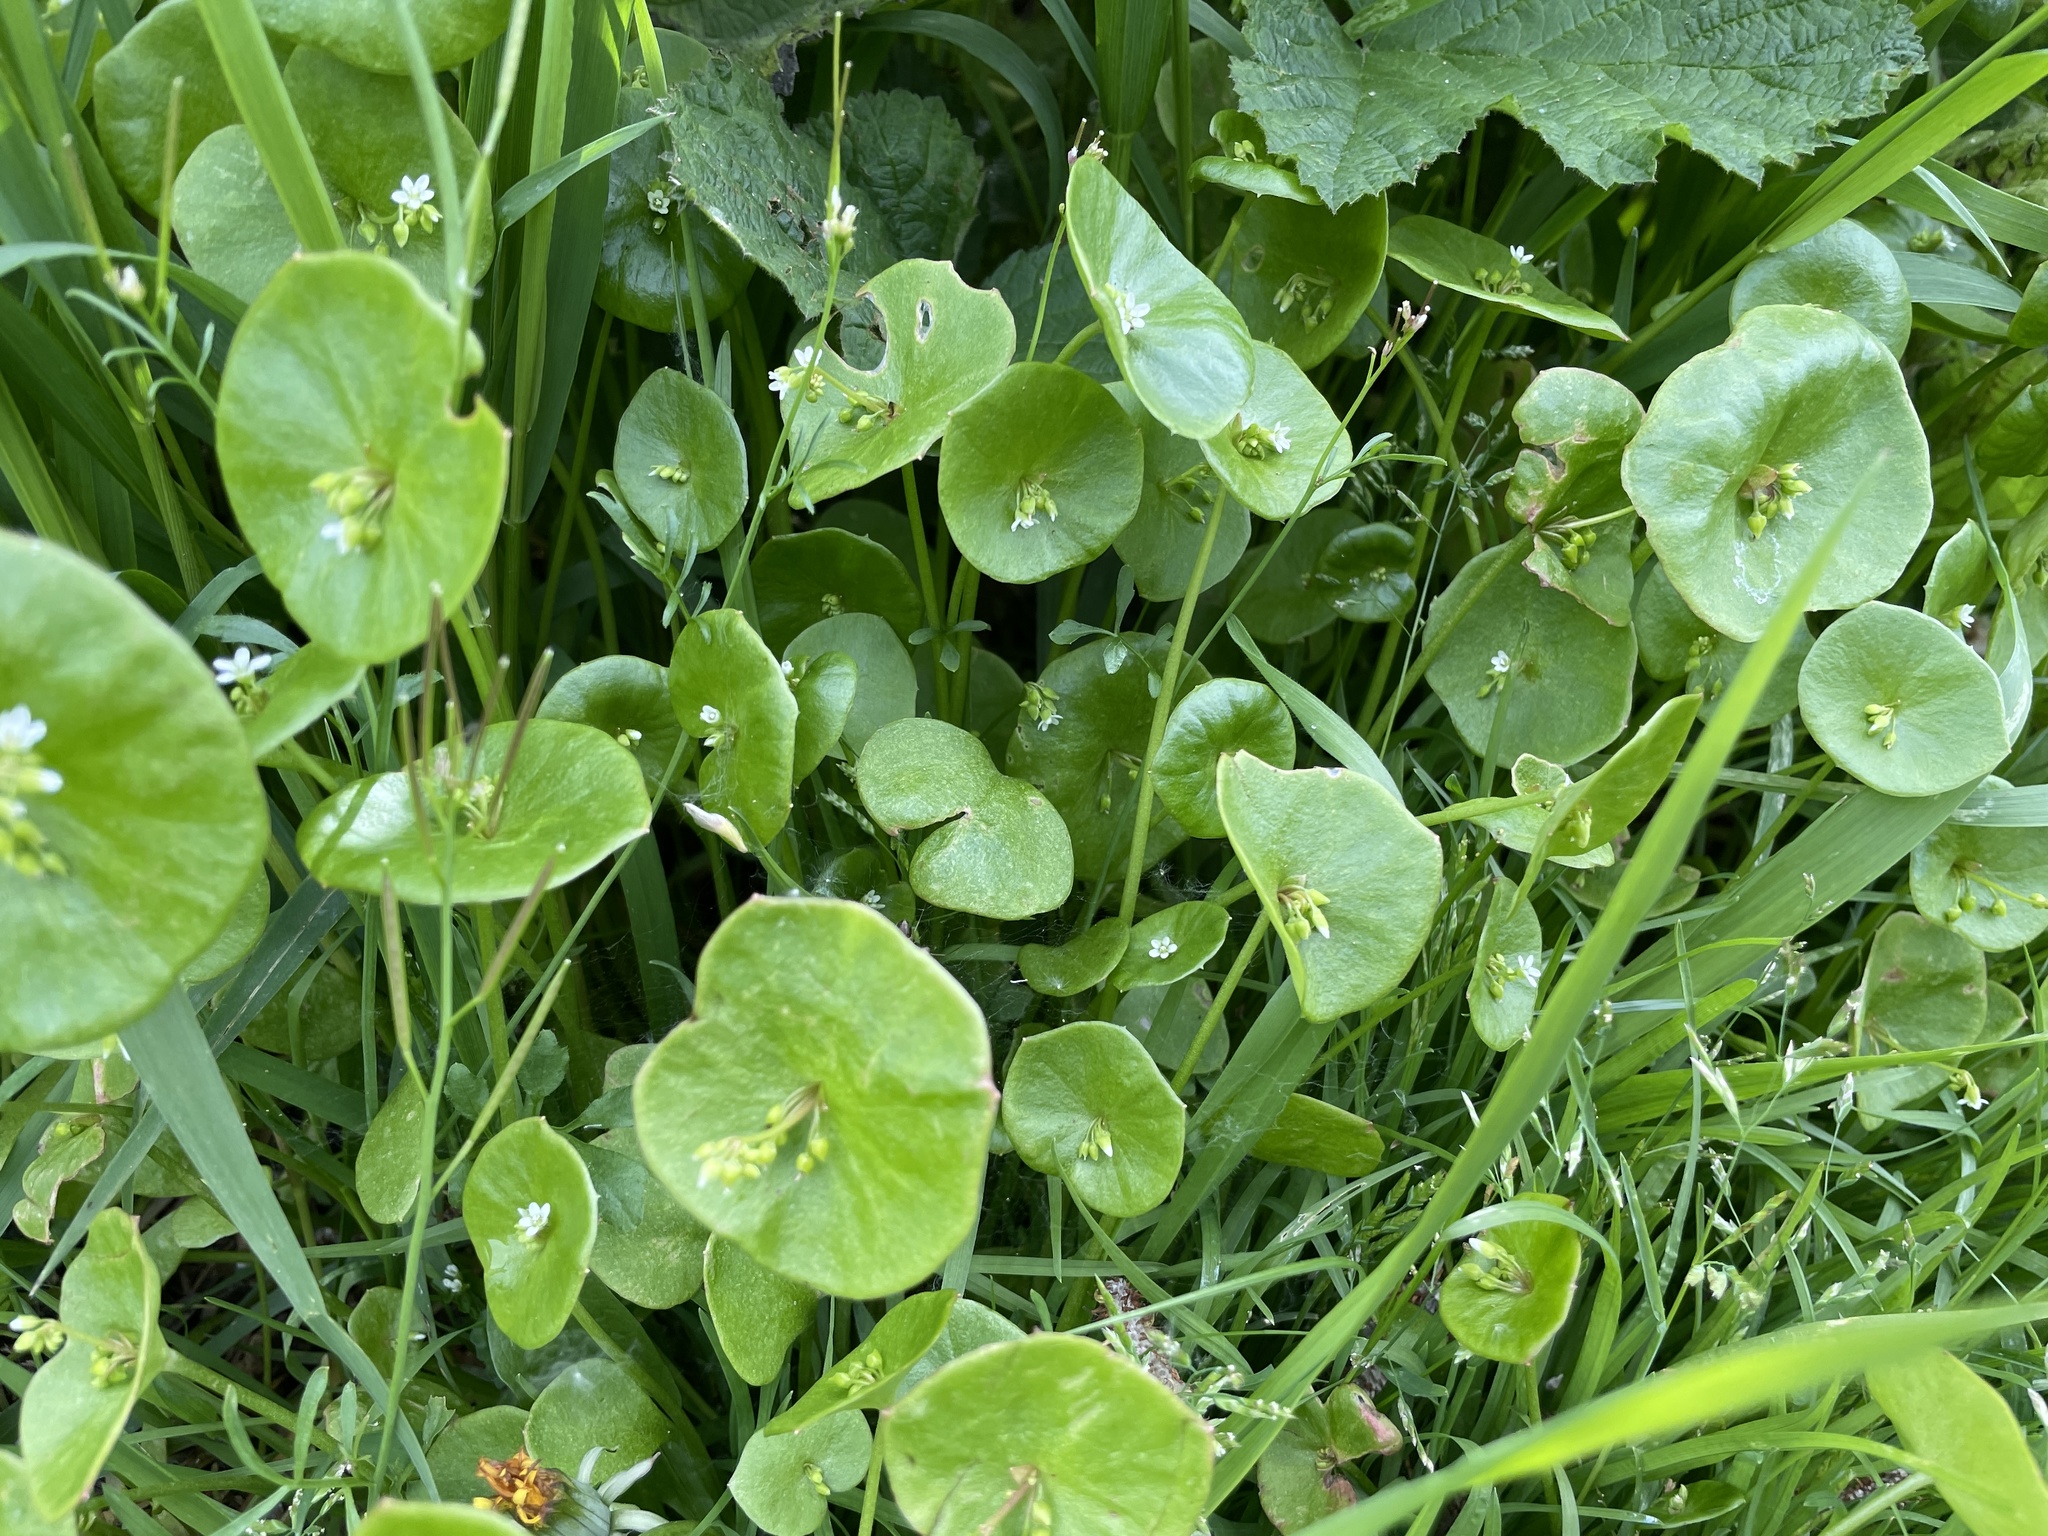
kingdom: Plantae
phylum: Tracheophyta
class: Magnoliopsida
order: Caryophyllales
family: Montiaceae
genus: Claytonia
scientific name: Claytonia perfoliata
